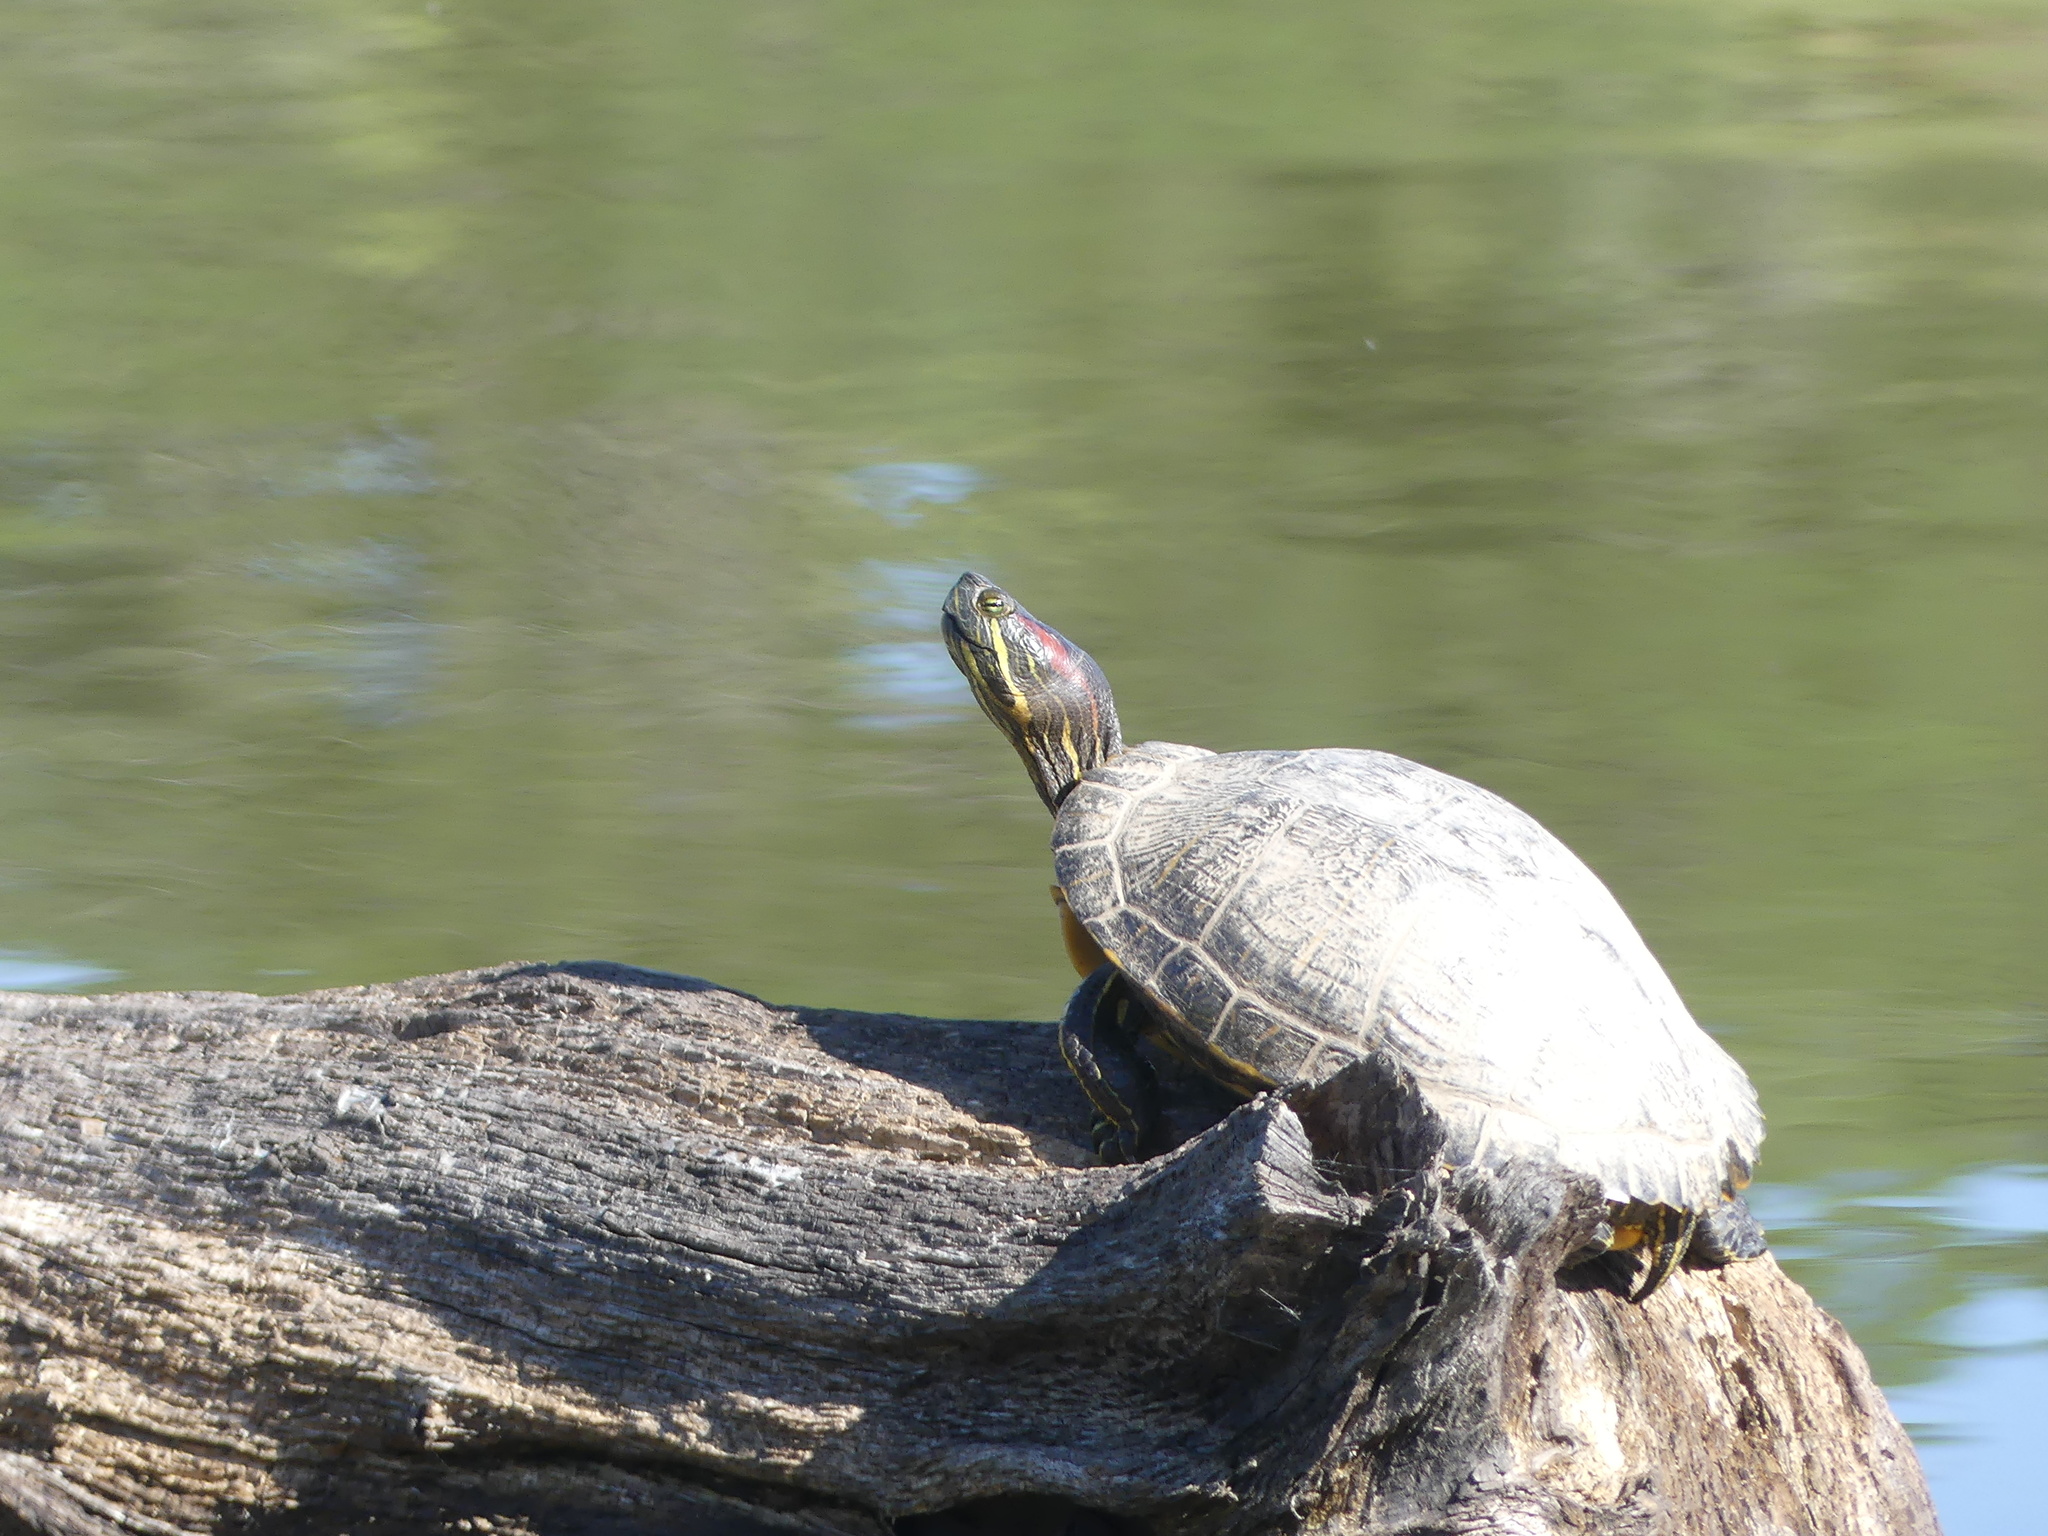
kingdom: Animalia
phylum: Chordata
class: Testudines
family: Emydidae
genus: Trachemys
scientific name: Trachemys scripta
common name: Slider
